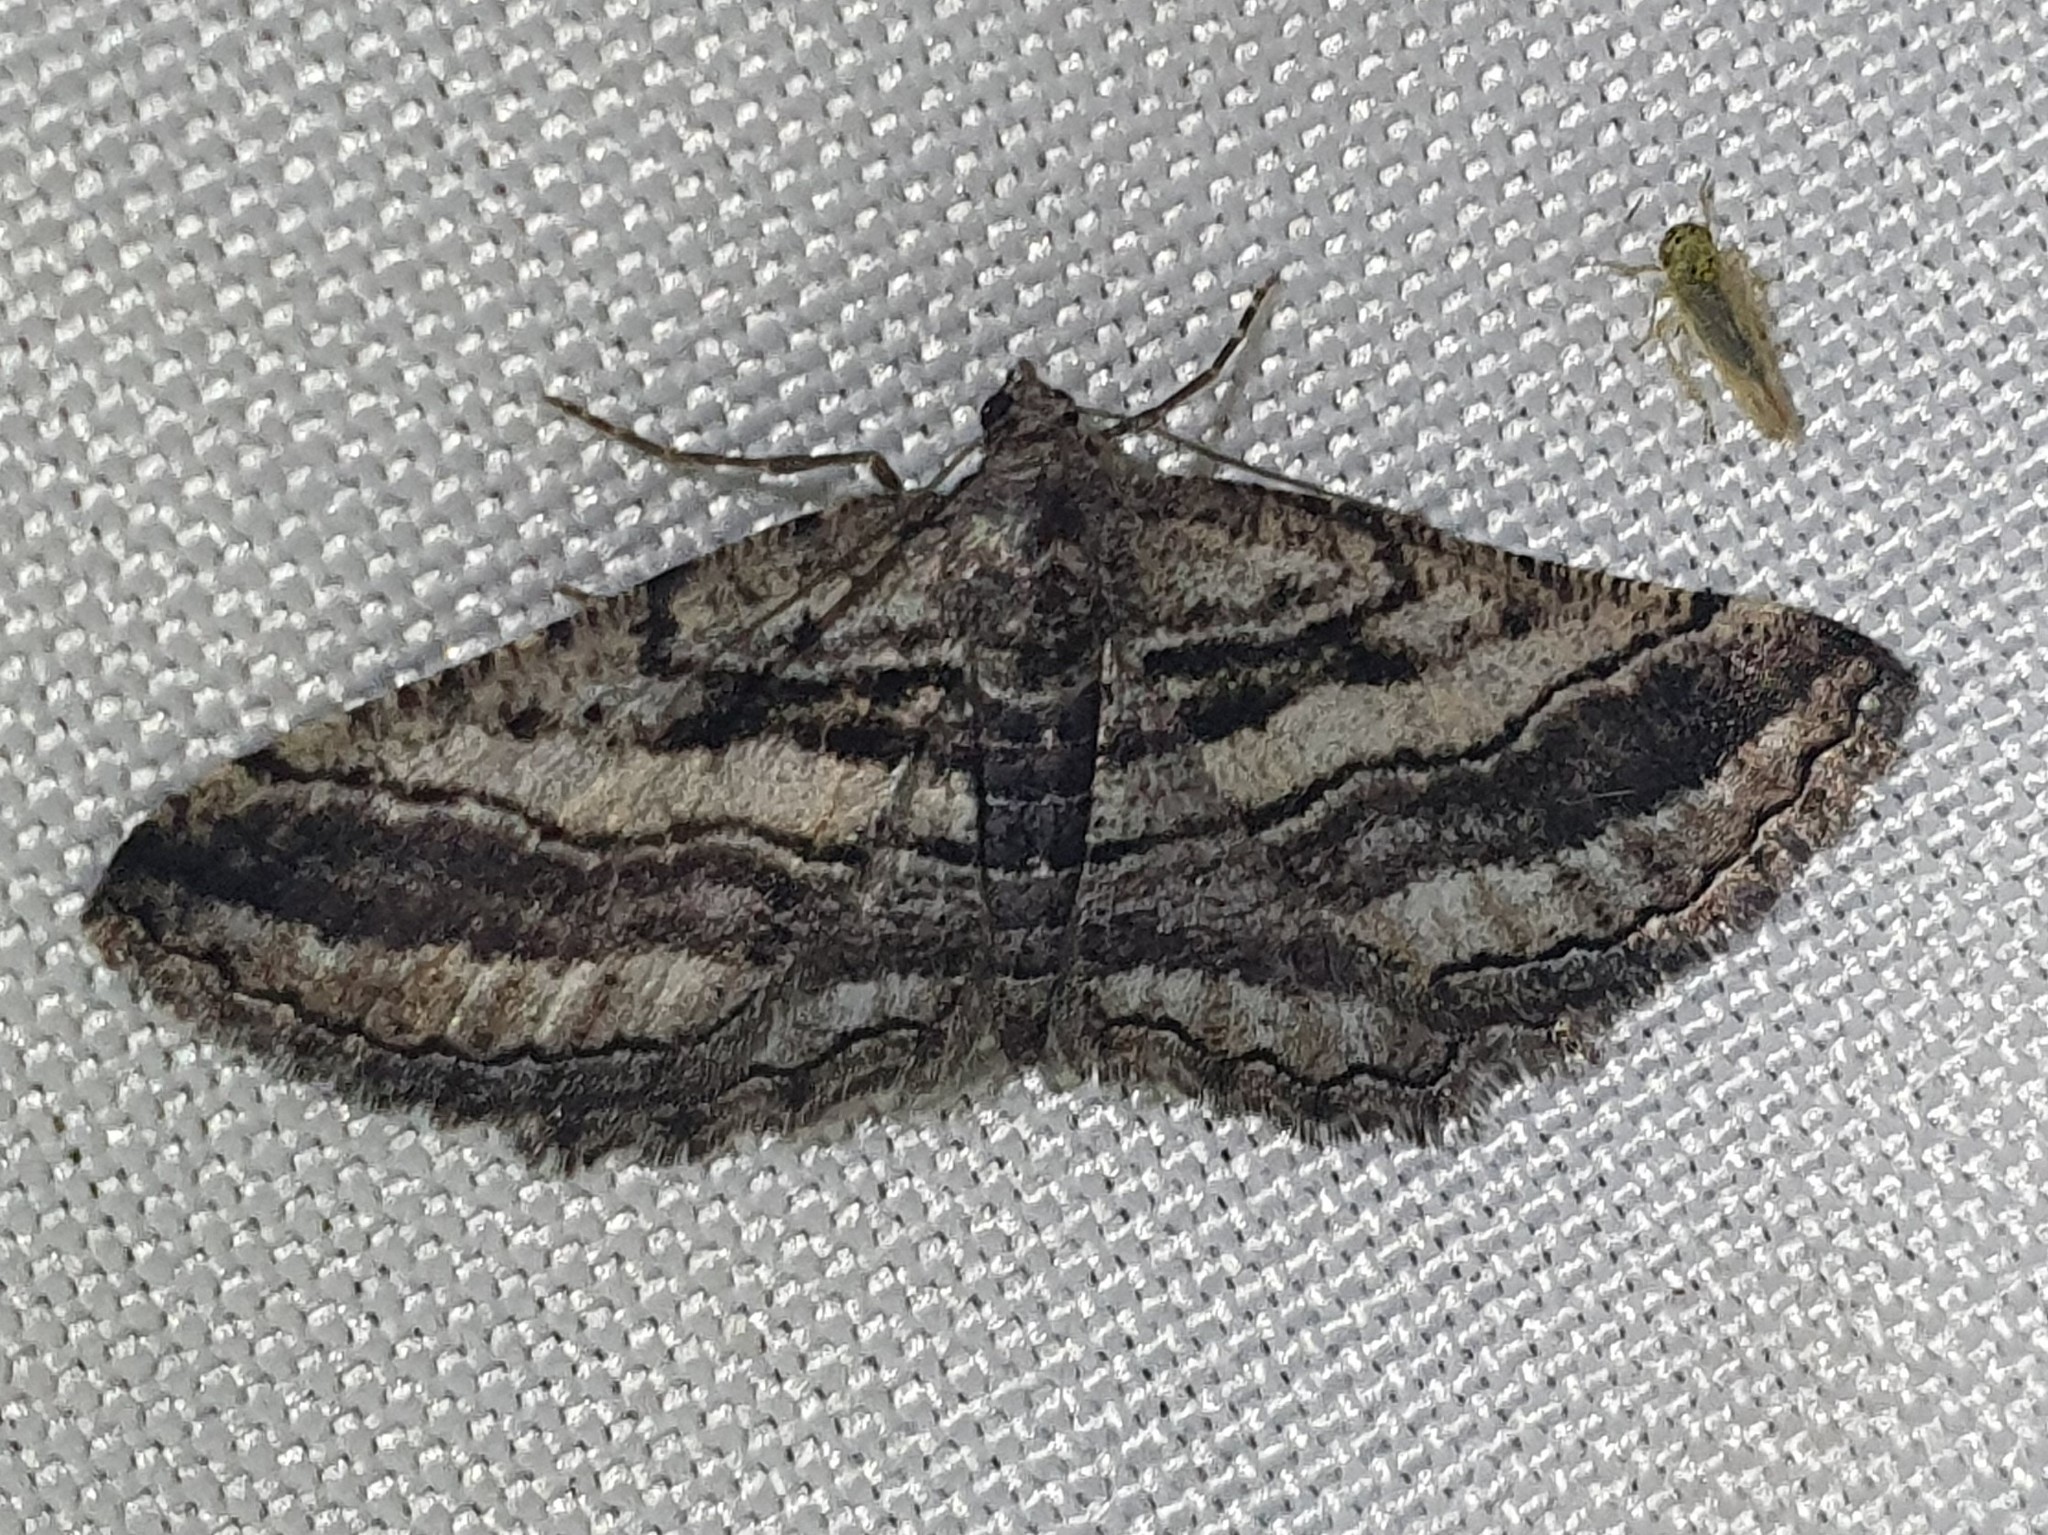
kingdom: Animalia
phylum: Arthropoda
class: Insecta
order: Lepidoptera
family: Geometridae
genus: Rhoptria
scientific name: Rhoptria asperaria
